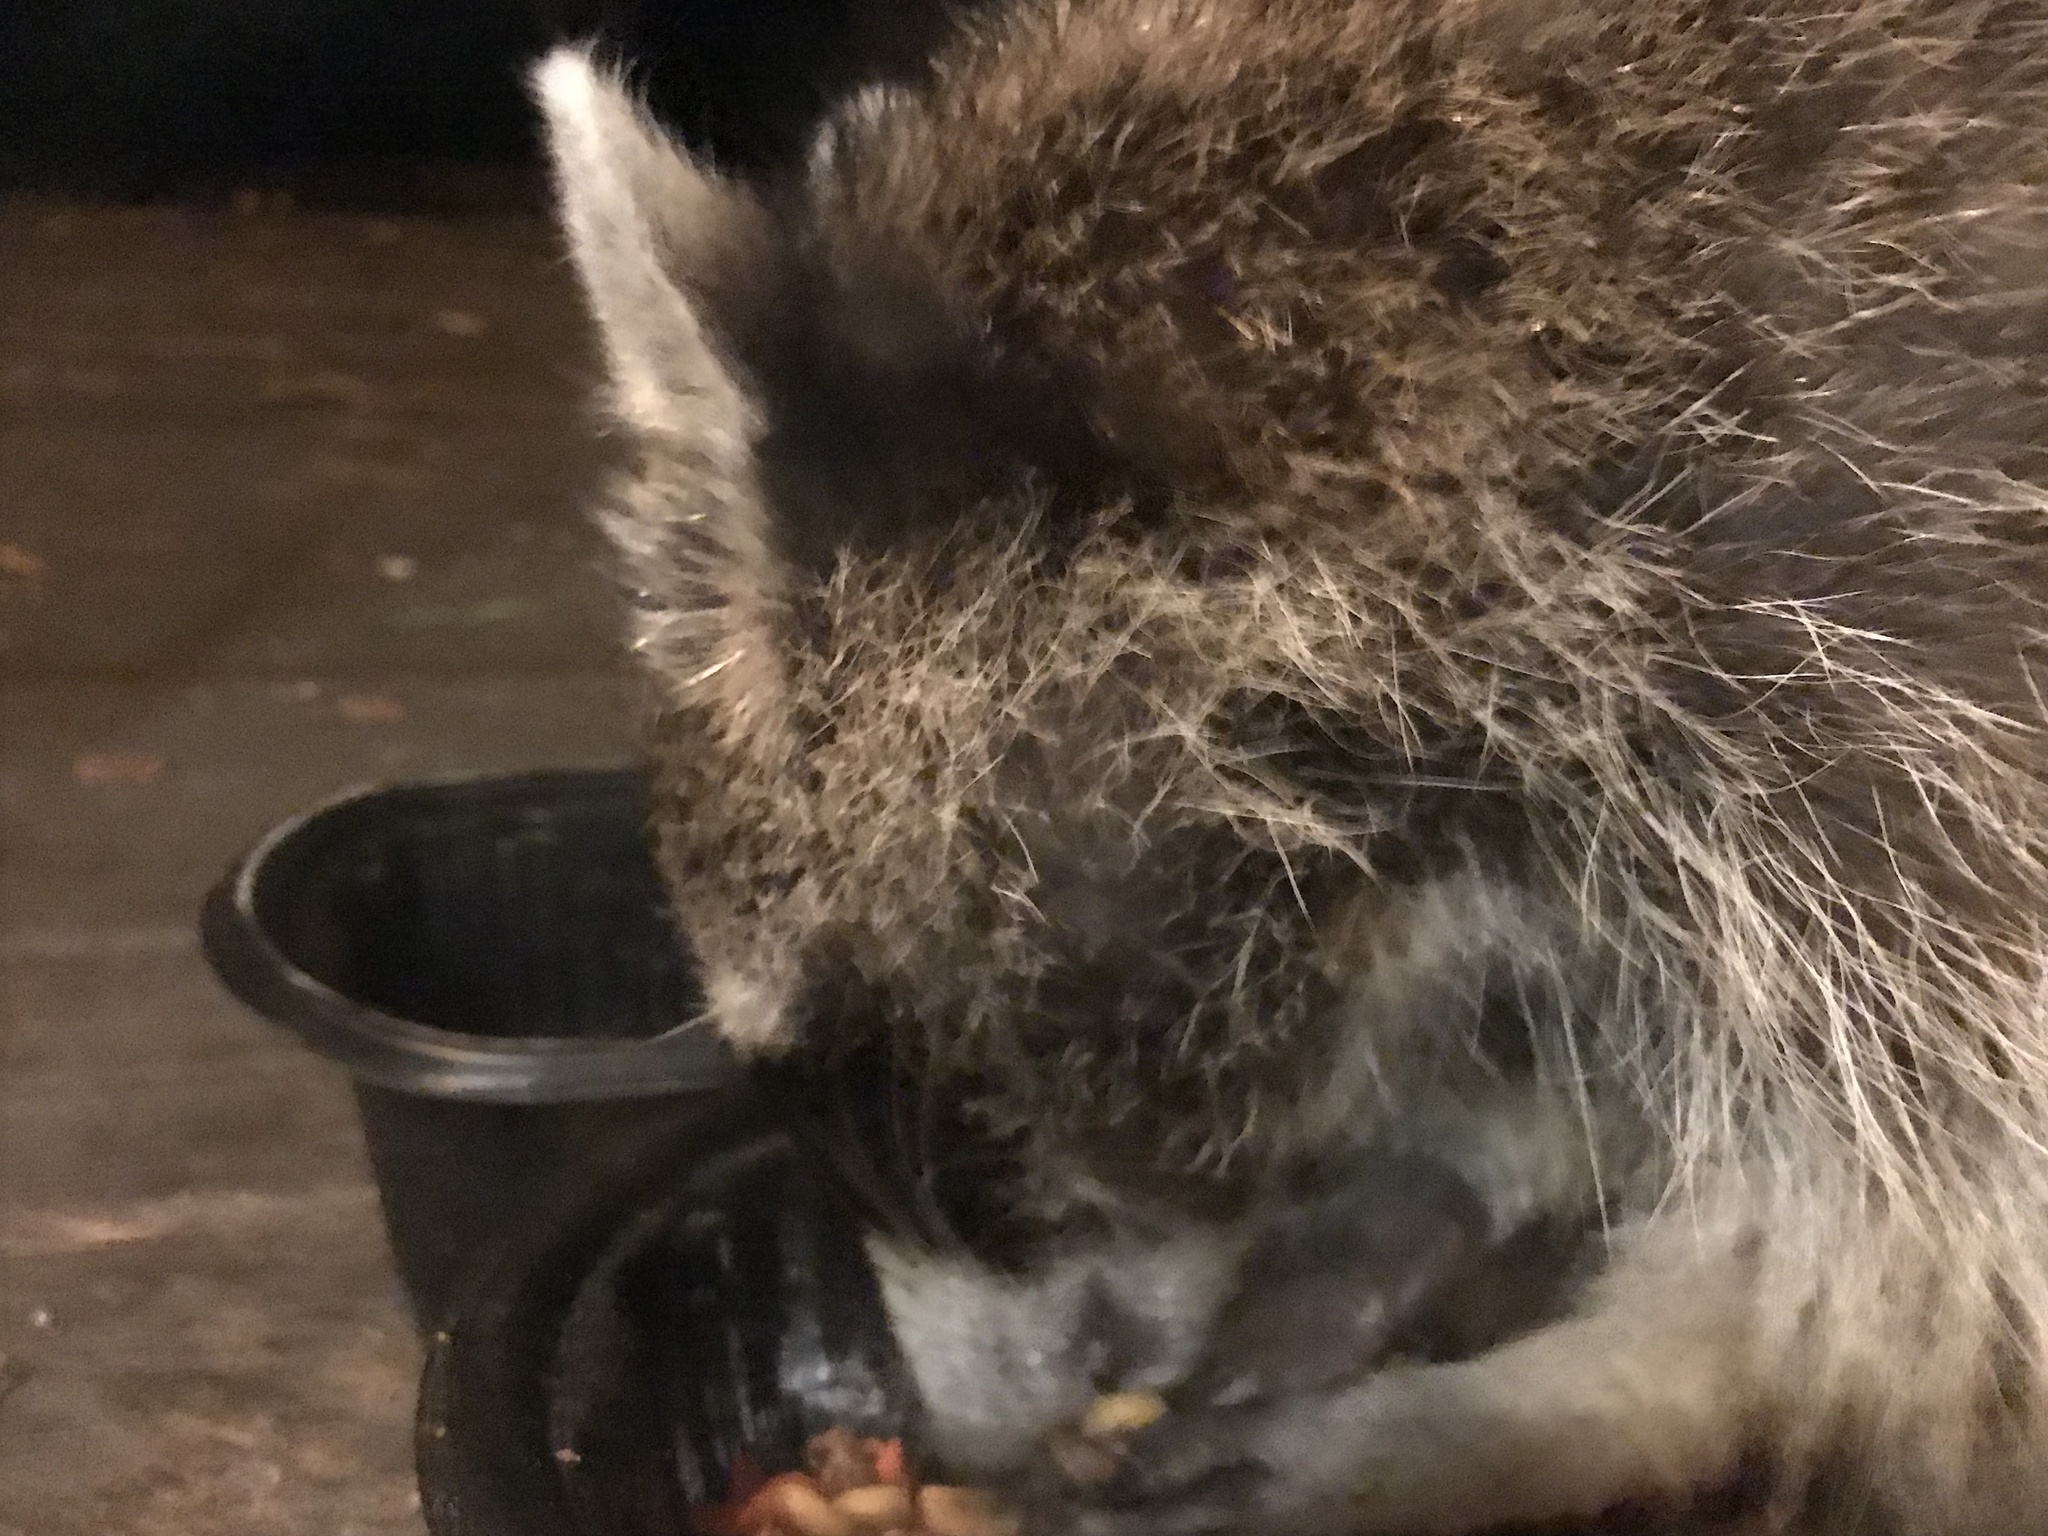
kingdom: Animalia
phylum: Chordata
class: Mammalia
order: Carnivora
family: Procyonidae
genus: Procyon
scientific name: Procyon lotor
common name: Raccoon
